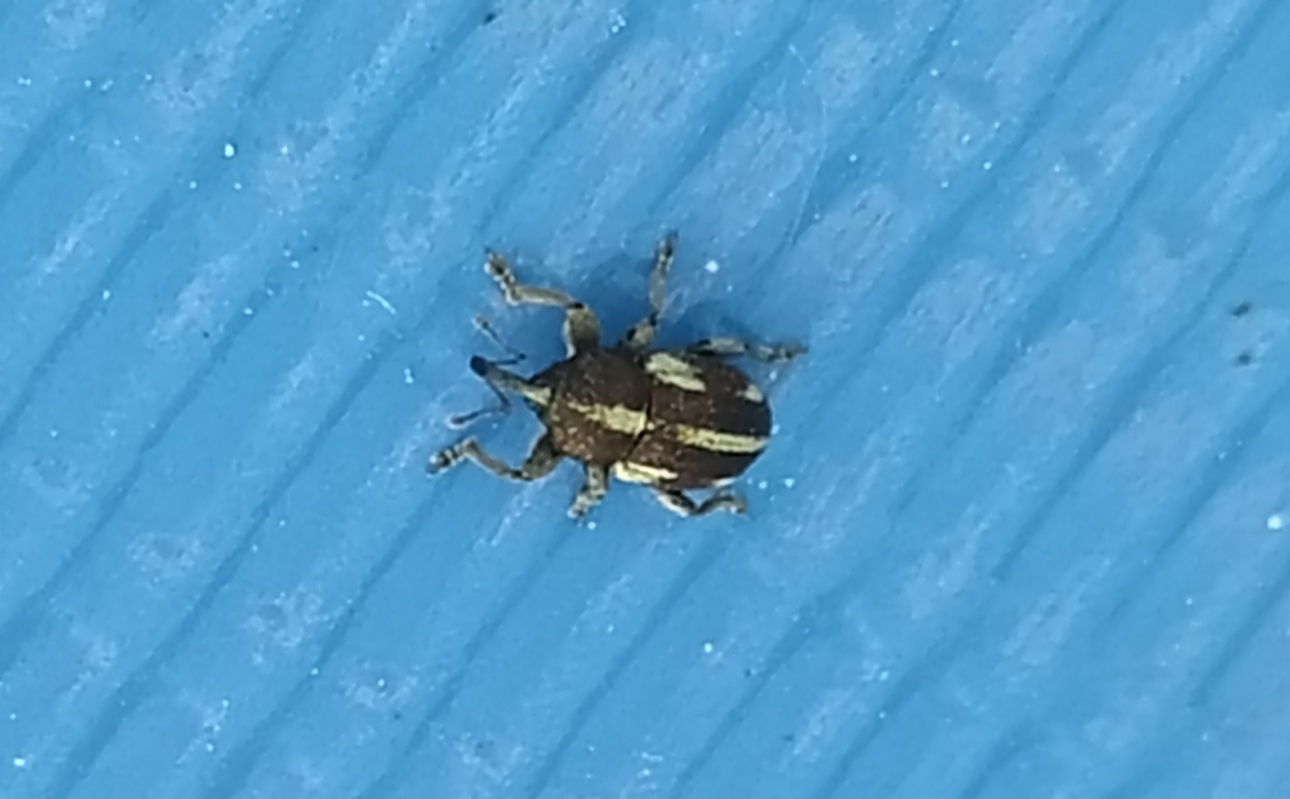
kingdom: Animalia
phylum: Arthropoda
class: Insecta
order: Coleoptera
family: Curculionidae
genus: Tychius
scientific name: Tychius quinquepunctatus
